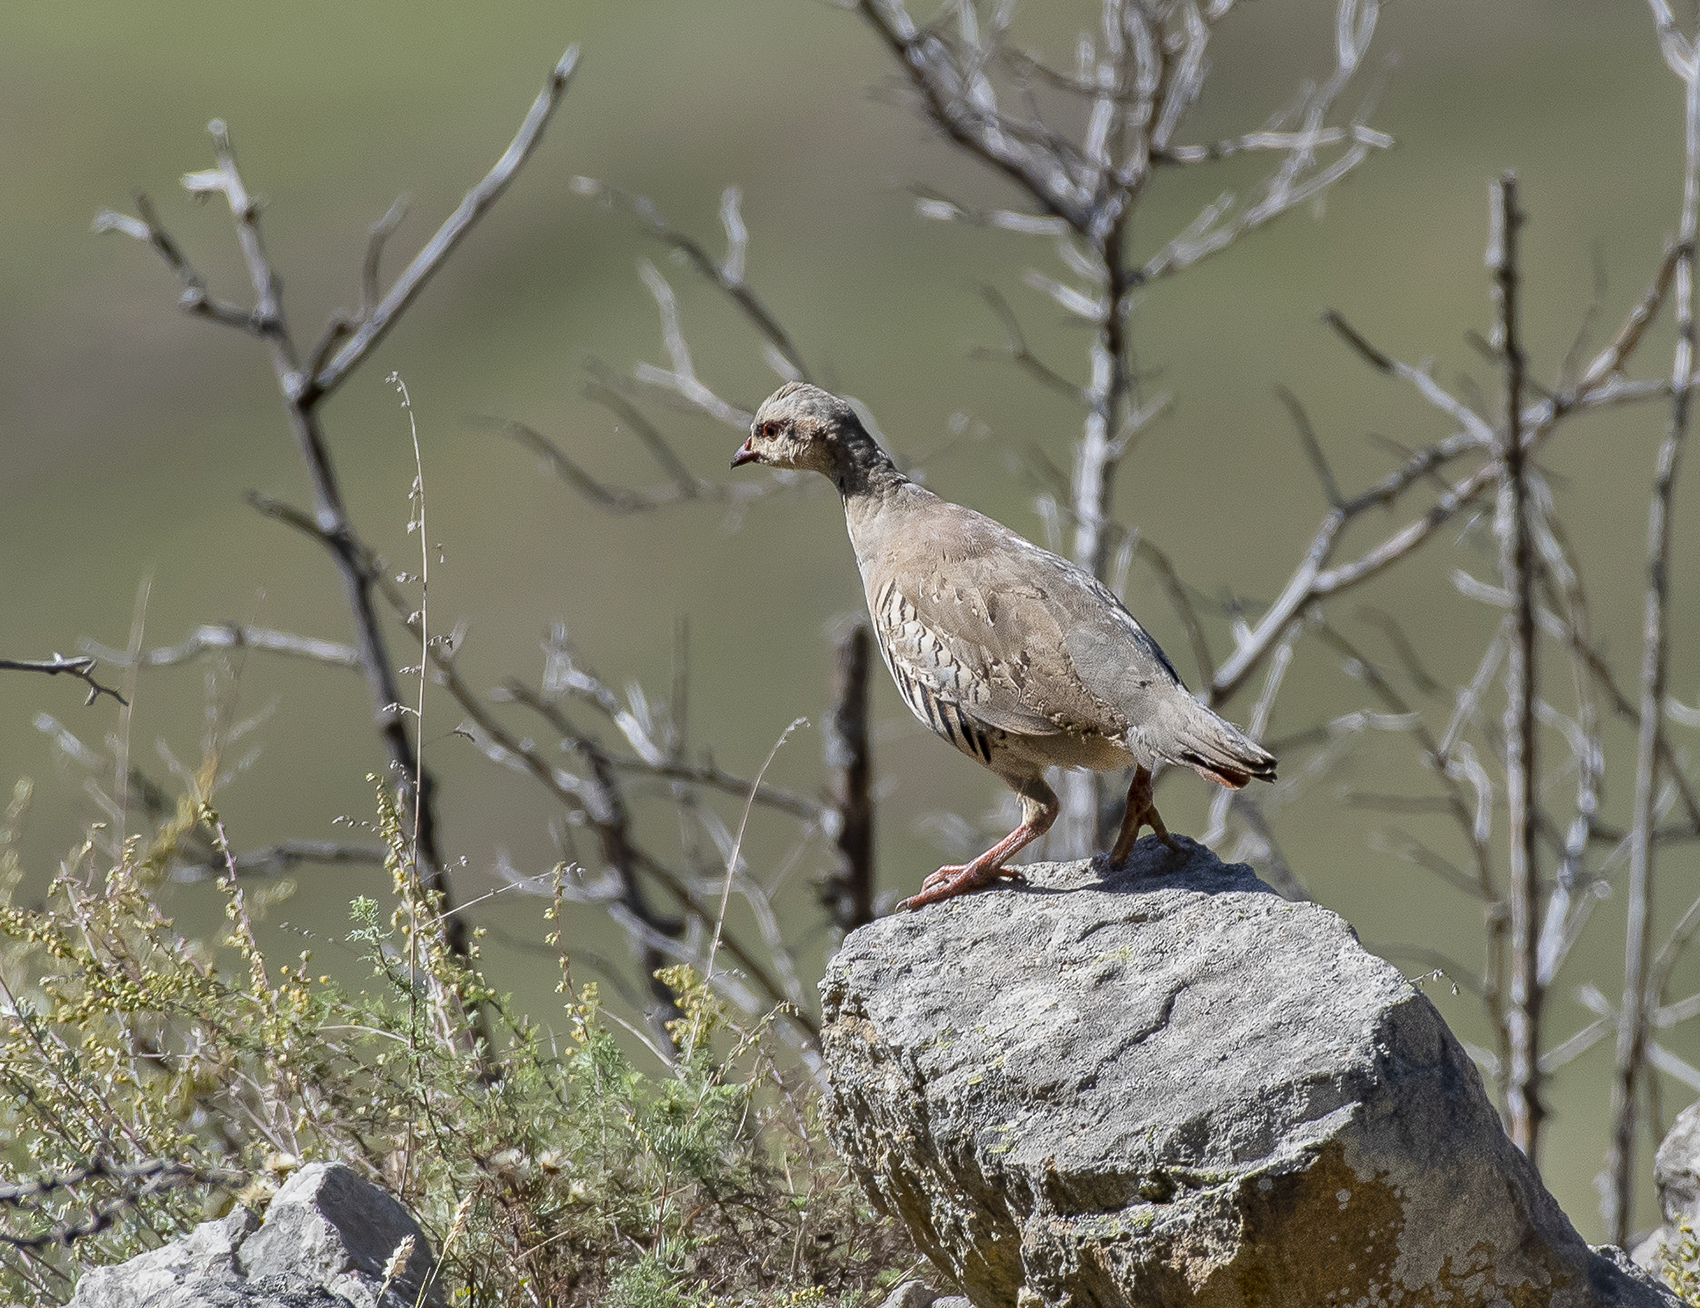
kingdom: Animalia
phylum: Chordata
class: Aves
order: Galliformes
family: Phasianidae
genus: Alectoris
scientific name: Alectoris chukar
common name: Chukar
